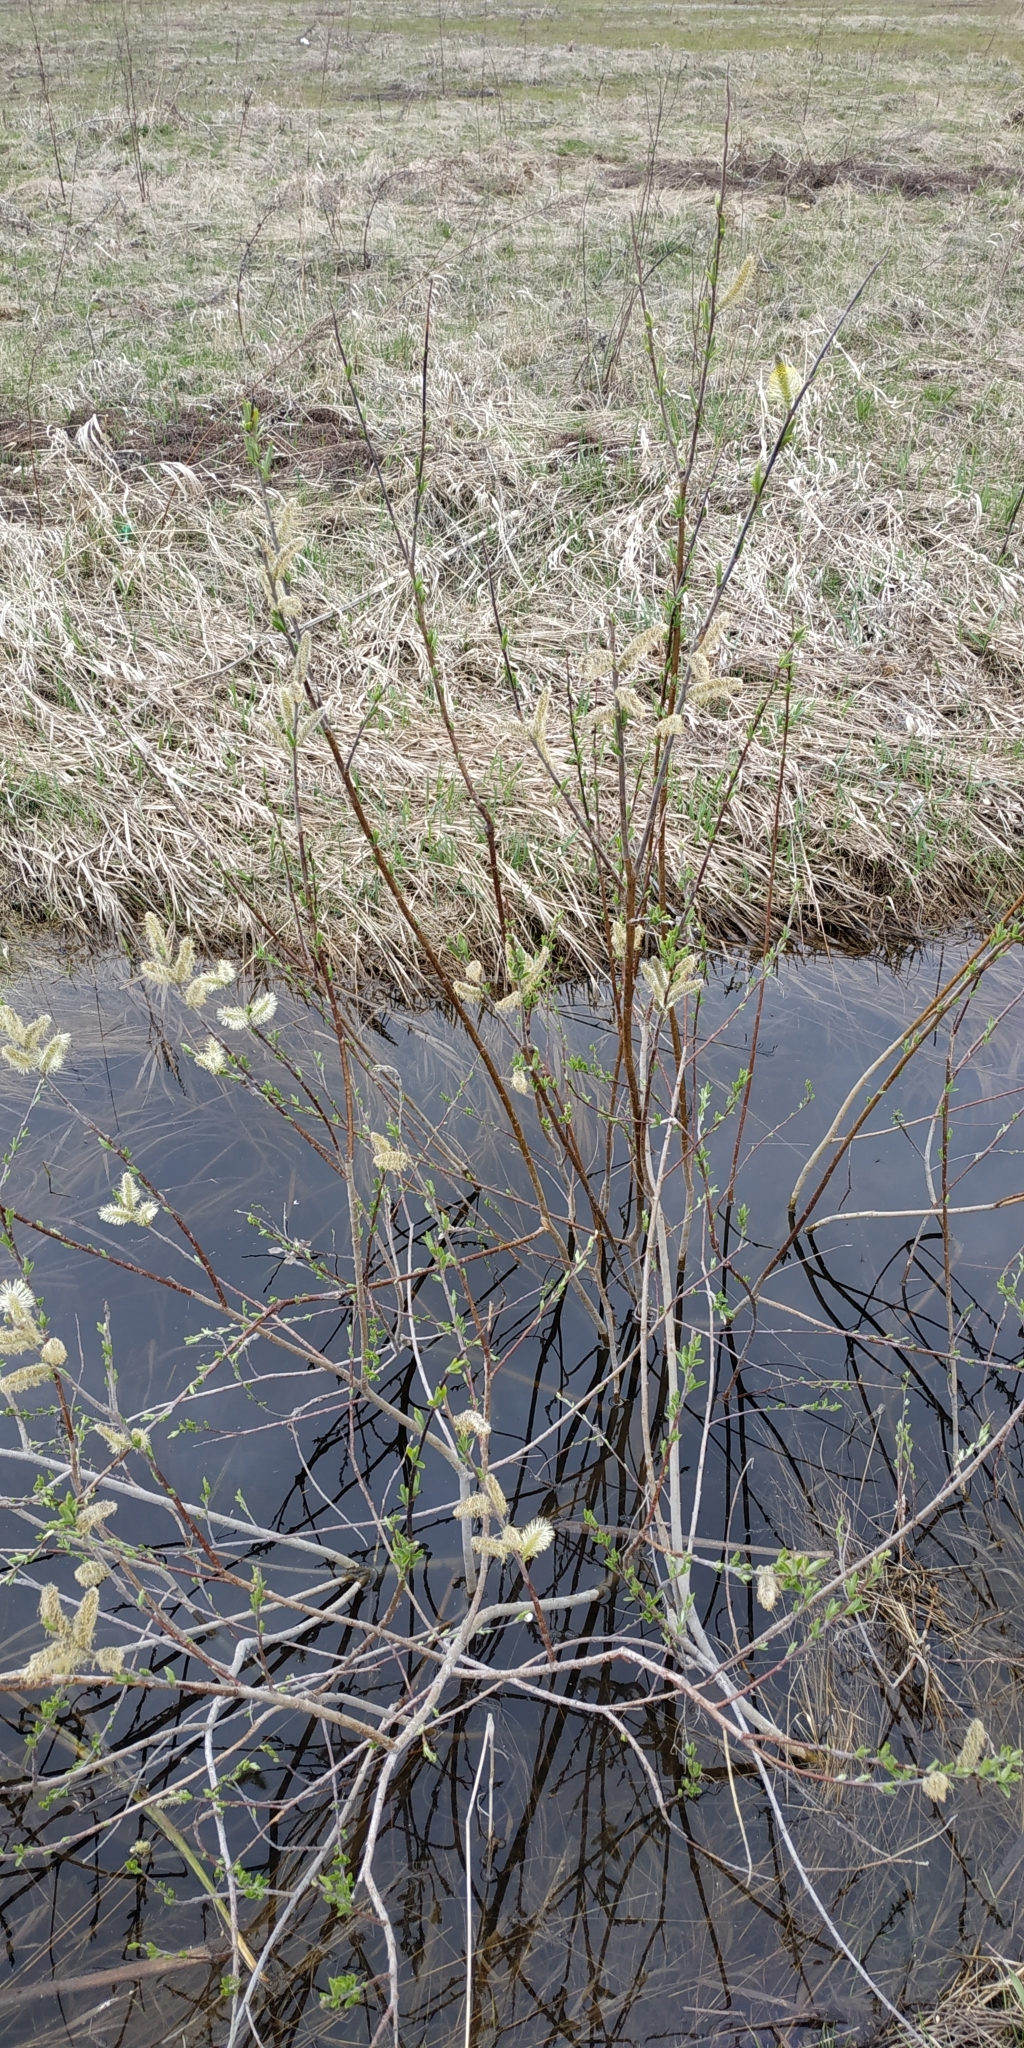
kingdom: Plantae
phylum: Tracheophyta
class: Magnoliopsida
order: Malpighiales
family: Salicaceae
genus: Salix
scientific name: Salix cinerea
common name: Common sallow
